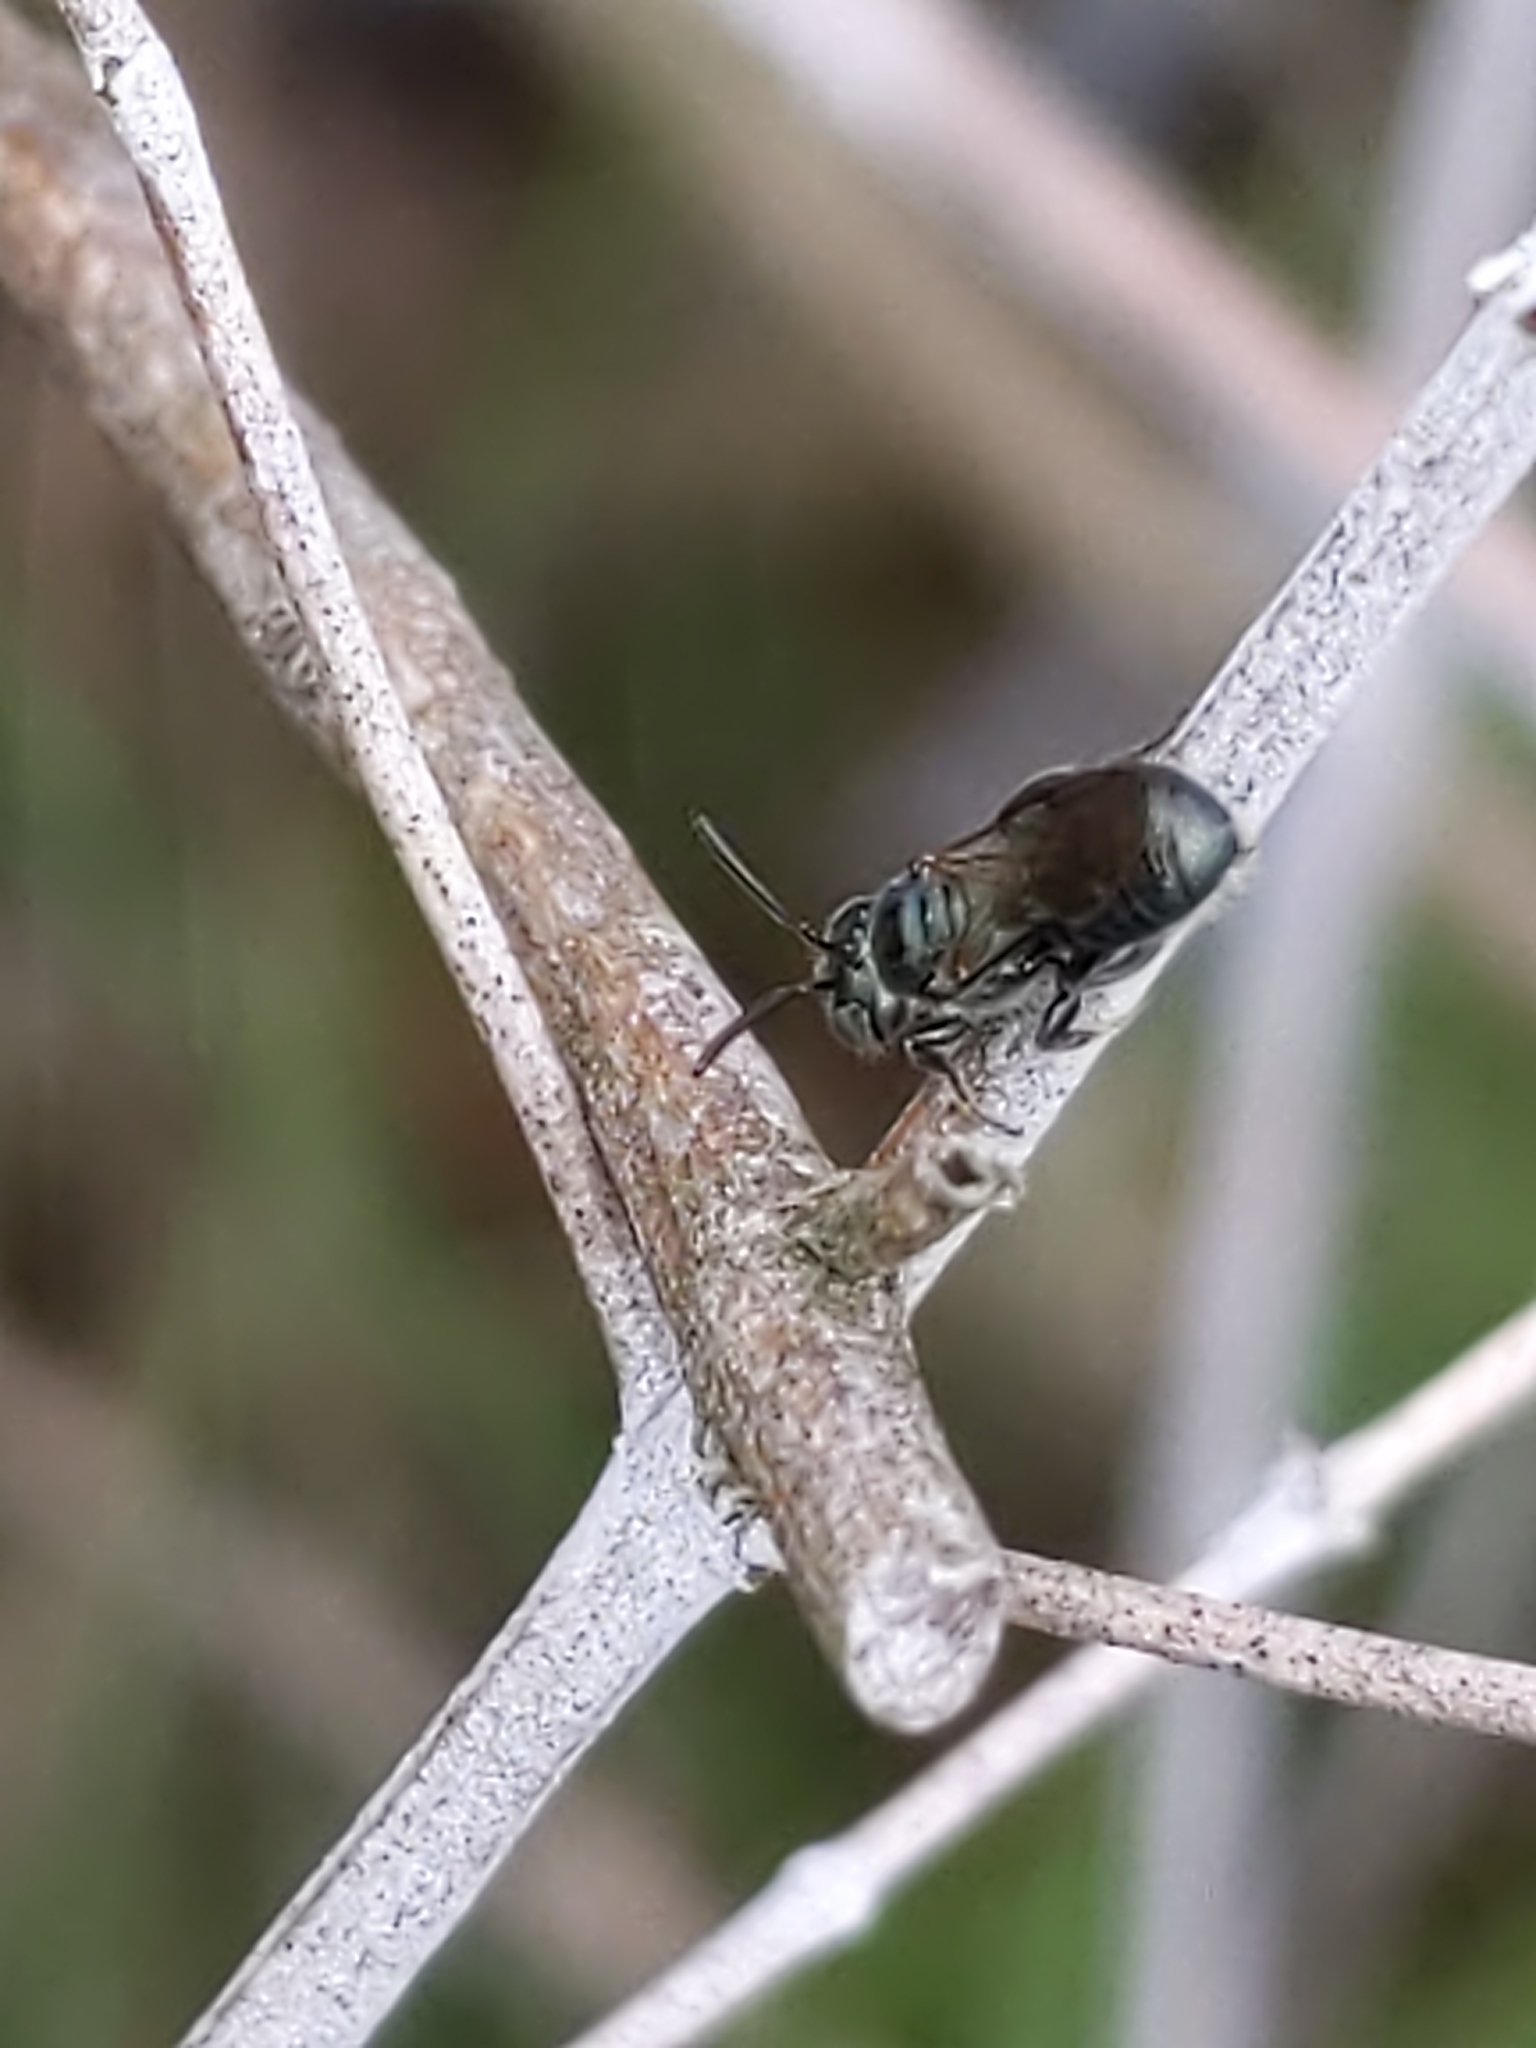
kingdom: Animalia
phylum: Arthropoda
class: Insecta
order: Hymenoptera
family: Apidae
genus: Zadontomerus
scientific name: Zadontomerus
